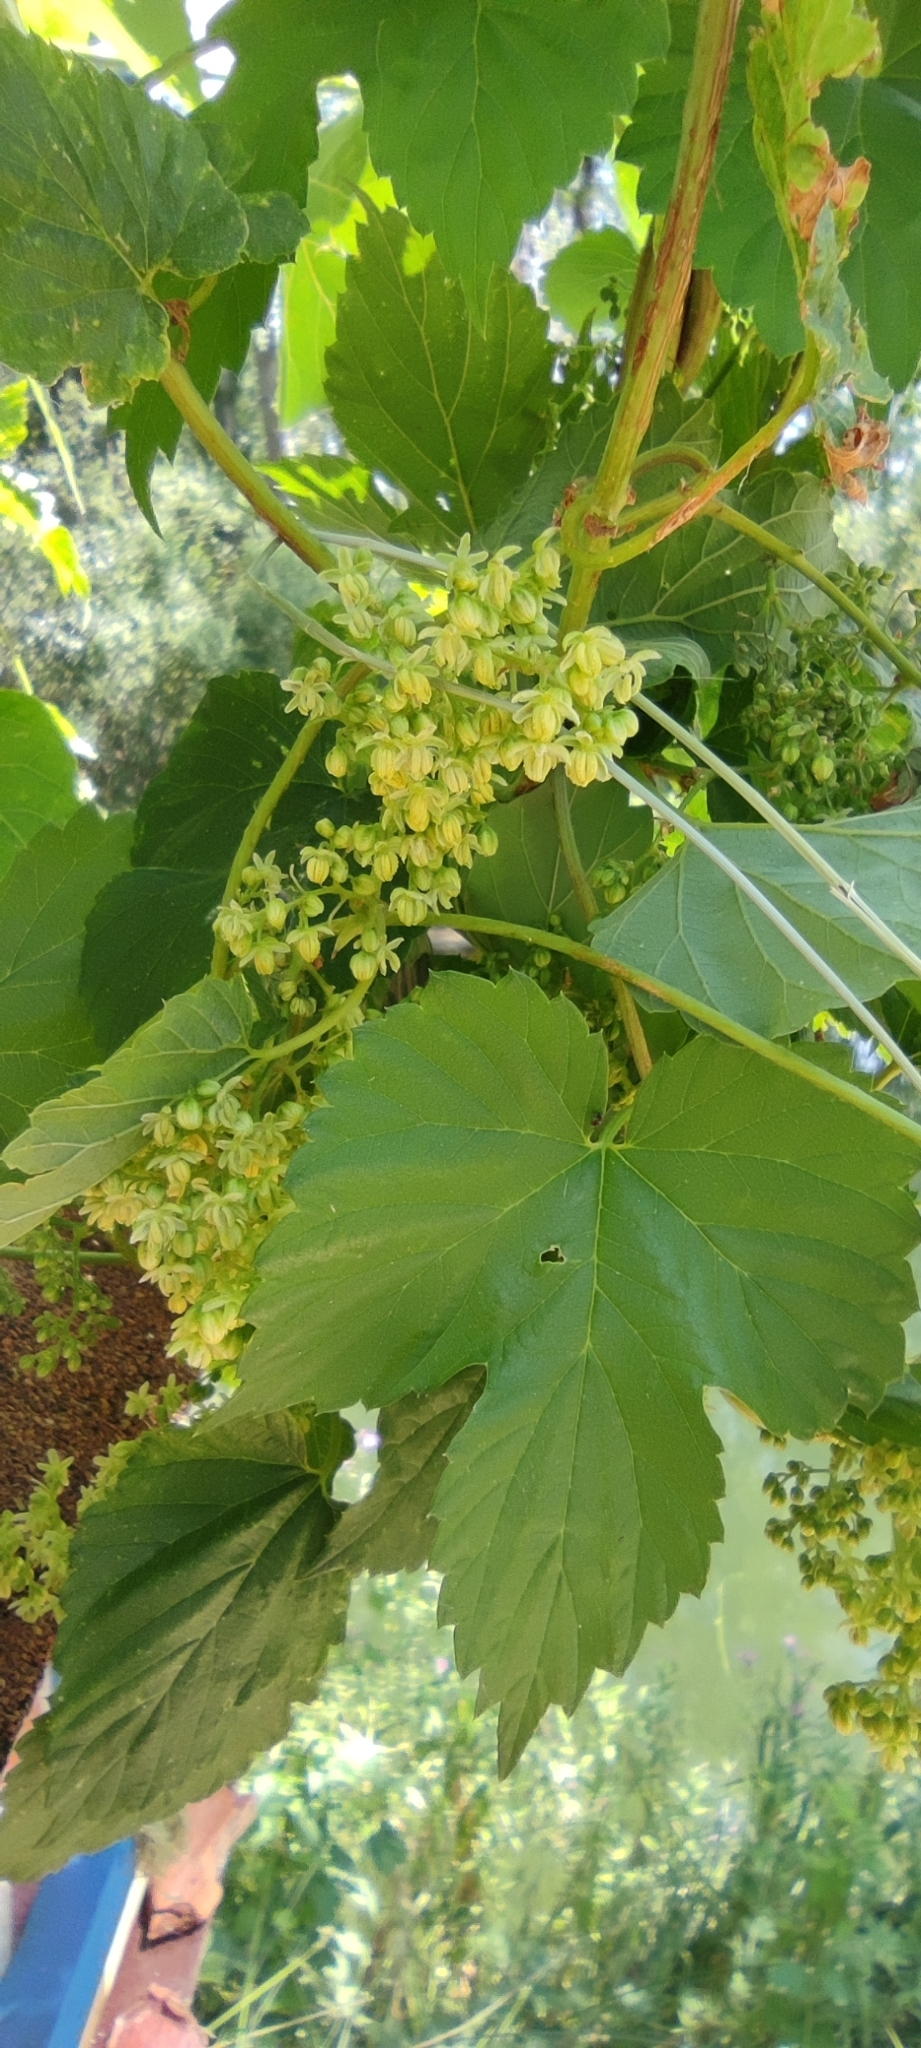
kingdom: Plantae
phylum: Tracheophyta
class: Magnoliopsida
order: Vitales
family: Vitaceae
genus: Vitis
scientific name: Vitis vinifera
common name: Grape-vine
